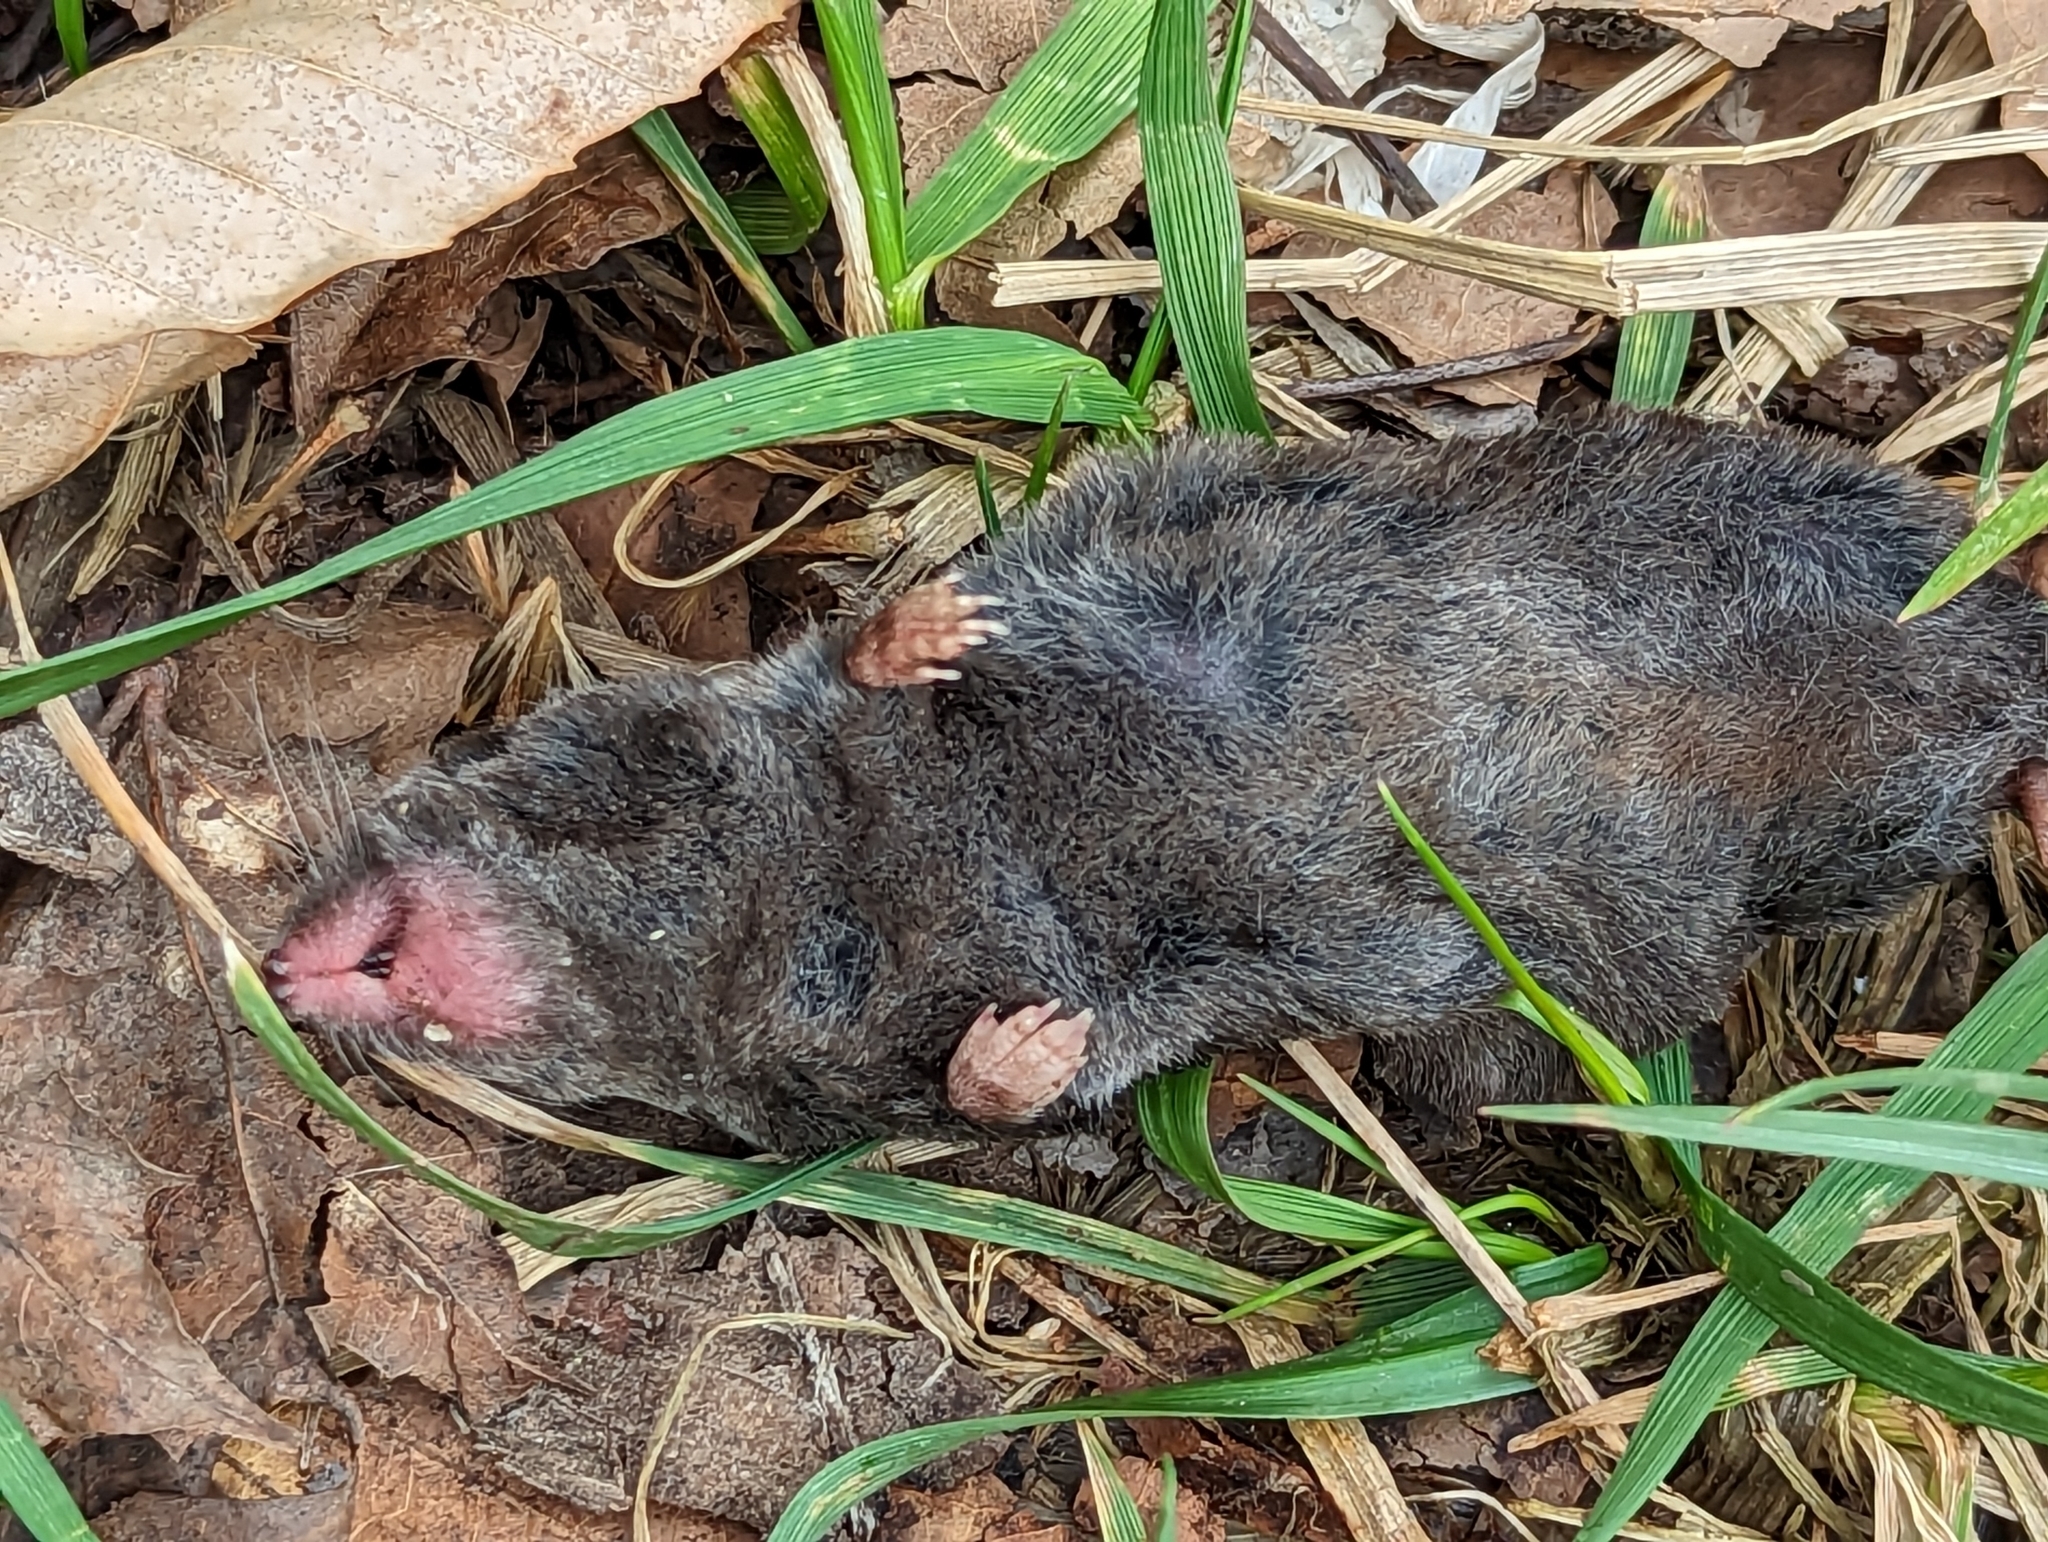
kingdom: Animalia
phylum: Chordata
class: Mammalia
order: Soricomorpha
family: Soricidae
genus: Blarina
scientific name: Blarina brevicauda
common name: Northern short-tailed shrew
